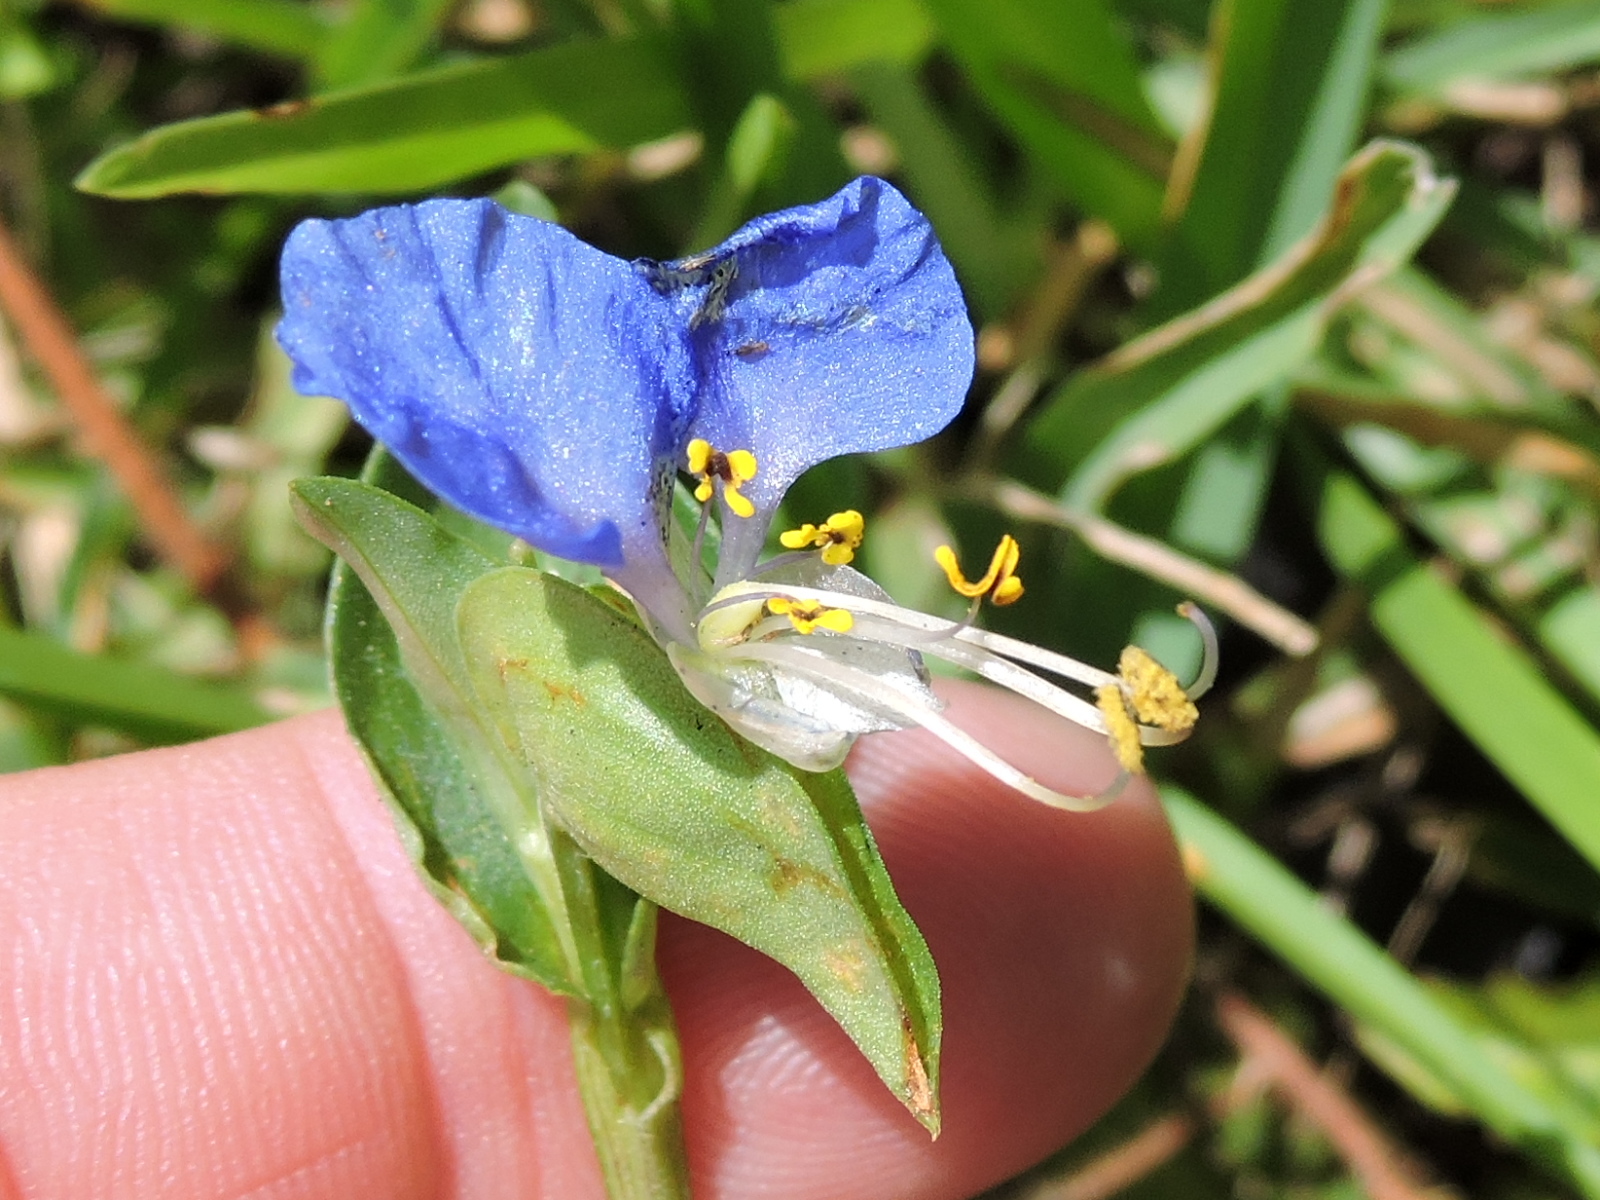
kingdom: Plantae
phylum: Tracheophyta
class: Liliopsida
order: Commelinales
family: Commelinaceae
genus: Commelina
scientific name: Commelina communis
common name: Asiatic dayflower
